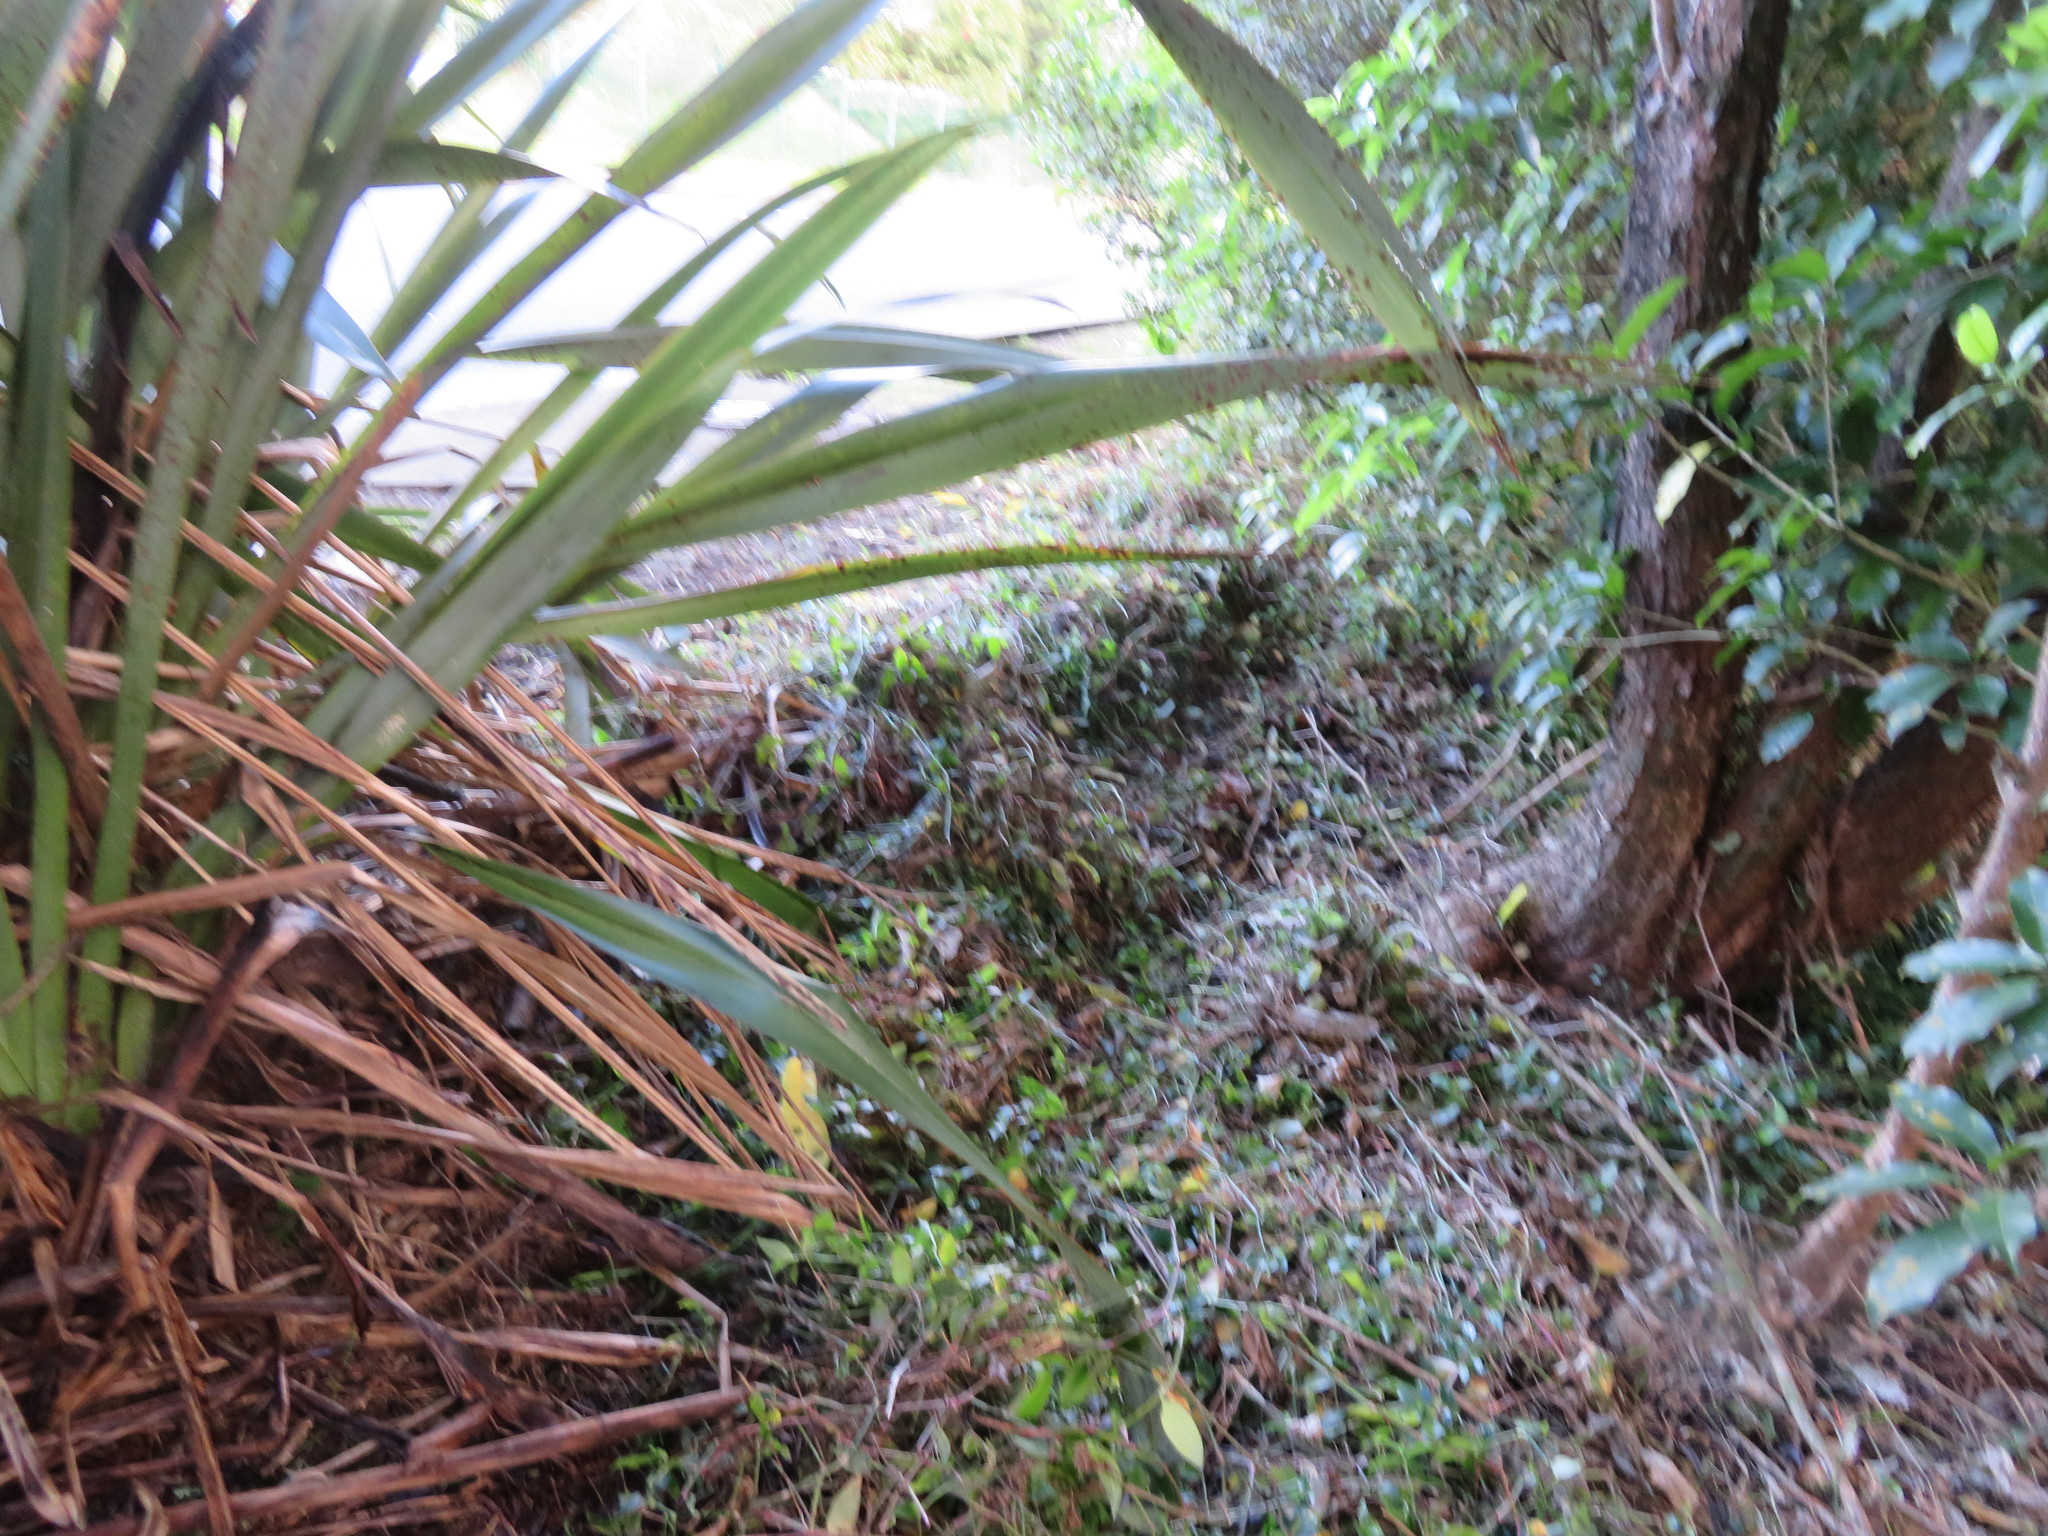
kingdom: Plantae
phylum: Tracheophyta
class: Liliopsida
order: Commelinales
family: Commelinaceae
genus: Tradescantia
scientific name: Tradescantia fluminensis
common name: Wandering-jew
